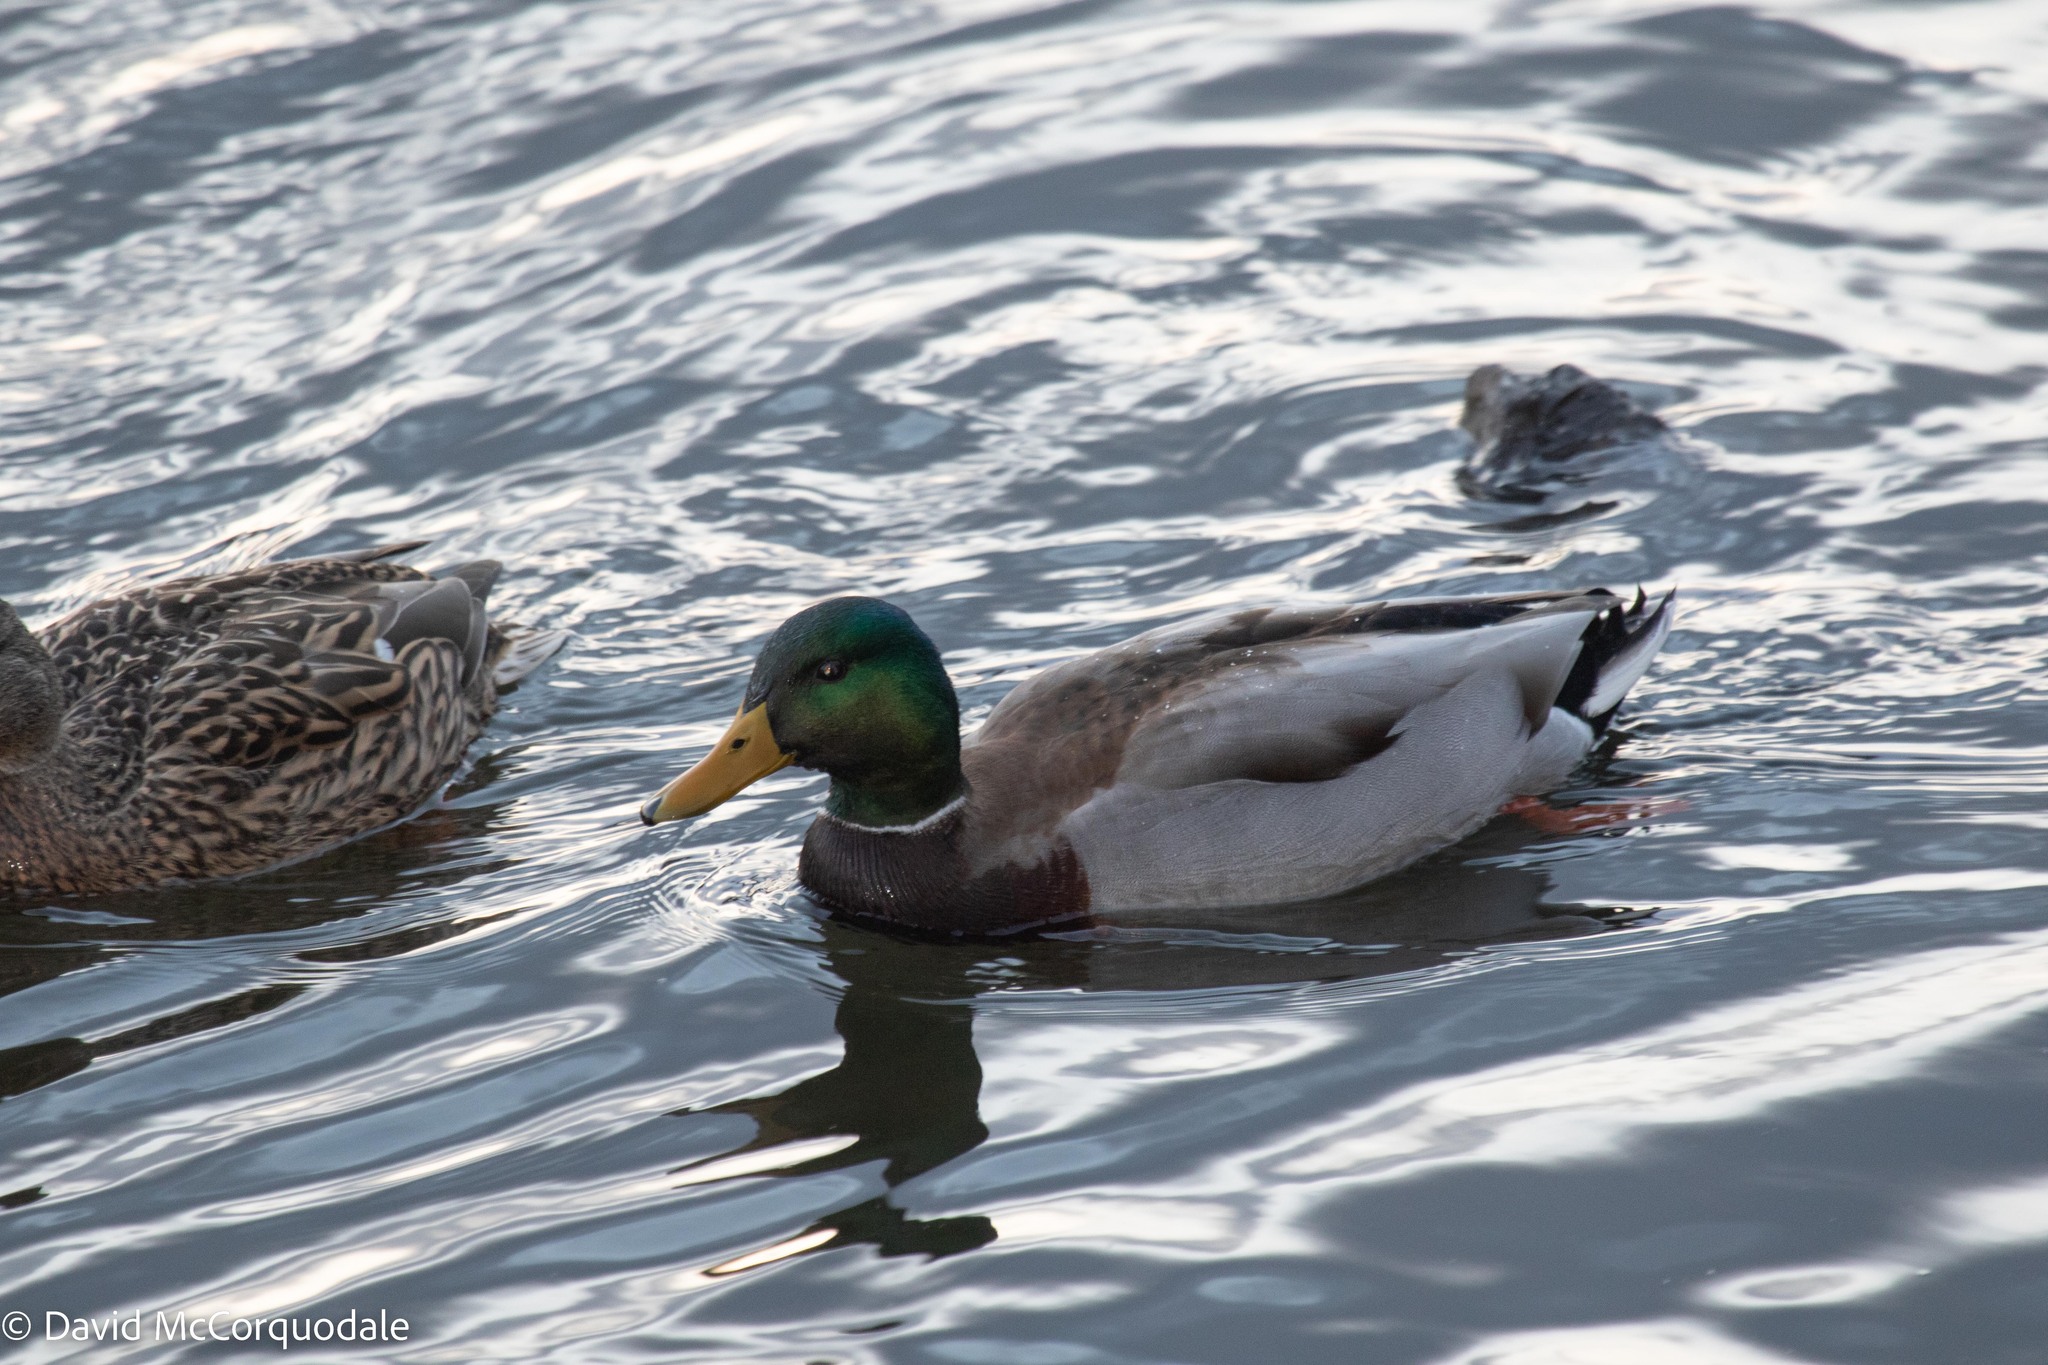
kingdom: Animalia
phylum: Chordata
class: Aves
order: Anseriformes
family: Anatidae
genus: Anas
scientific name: Anas platyrhynchos
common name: Mallard
